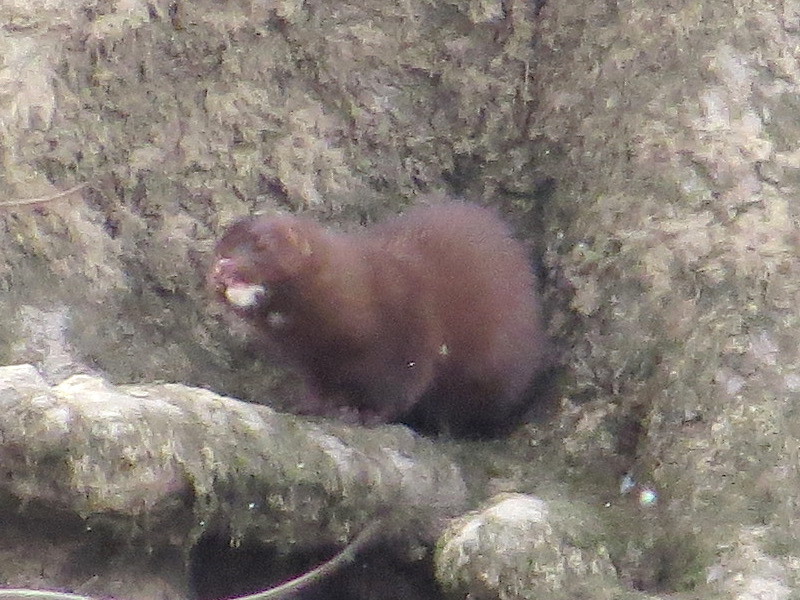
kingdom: Animalia
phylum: Chordata
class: Mammalia
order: Carnivora
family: Mustelidae
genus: Mustela
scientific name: Mustela
